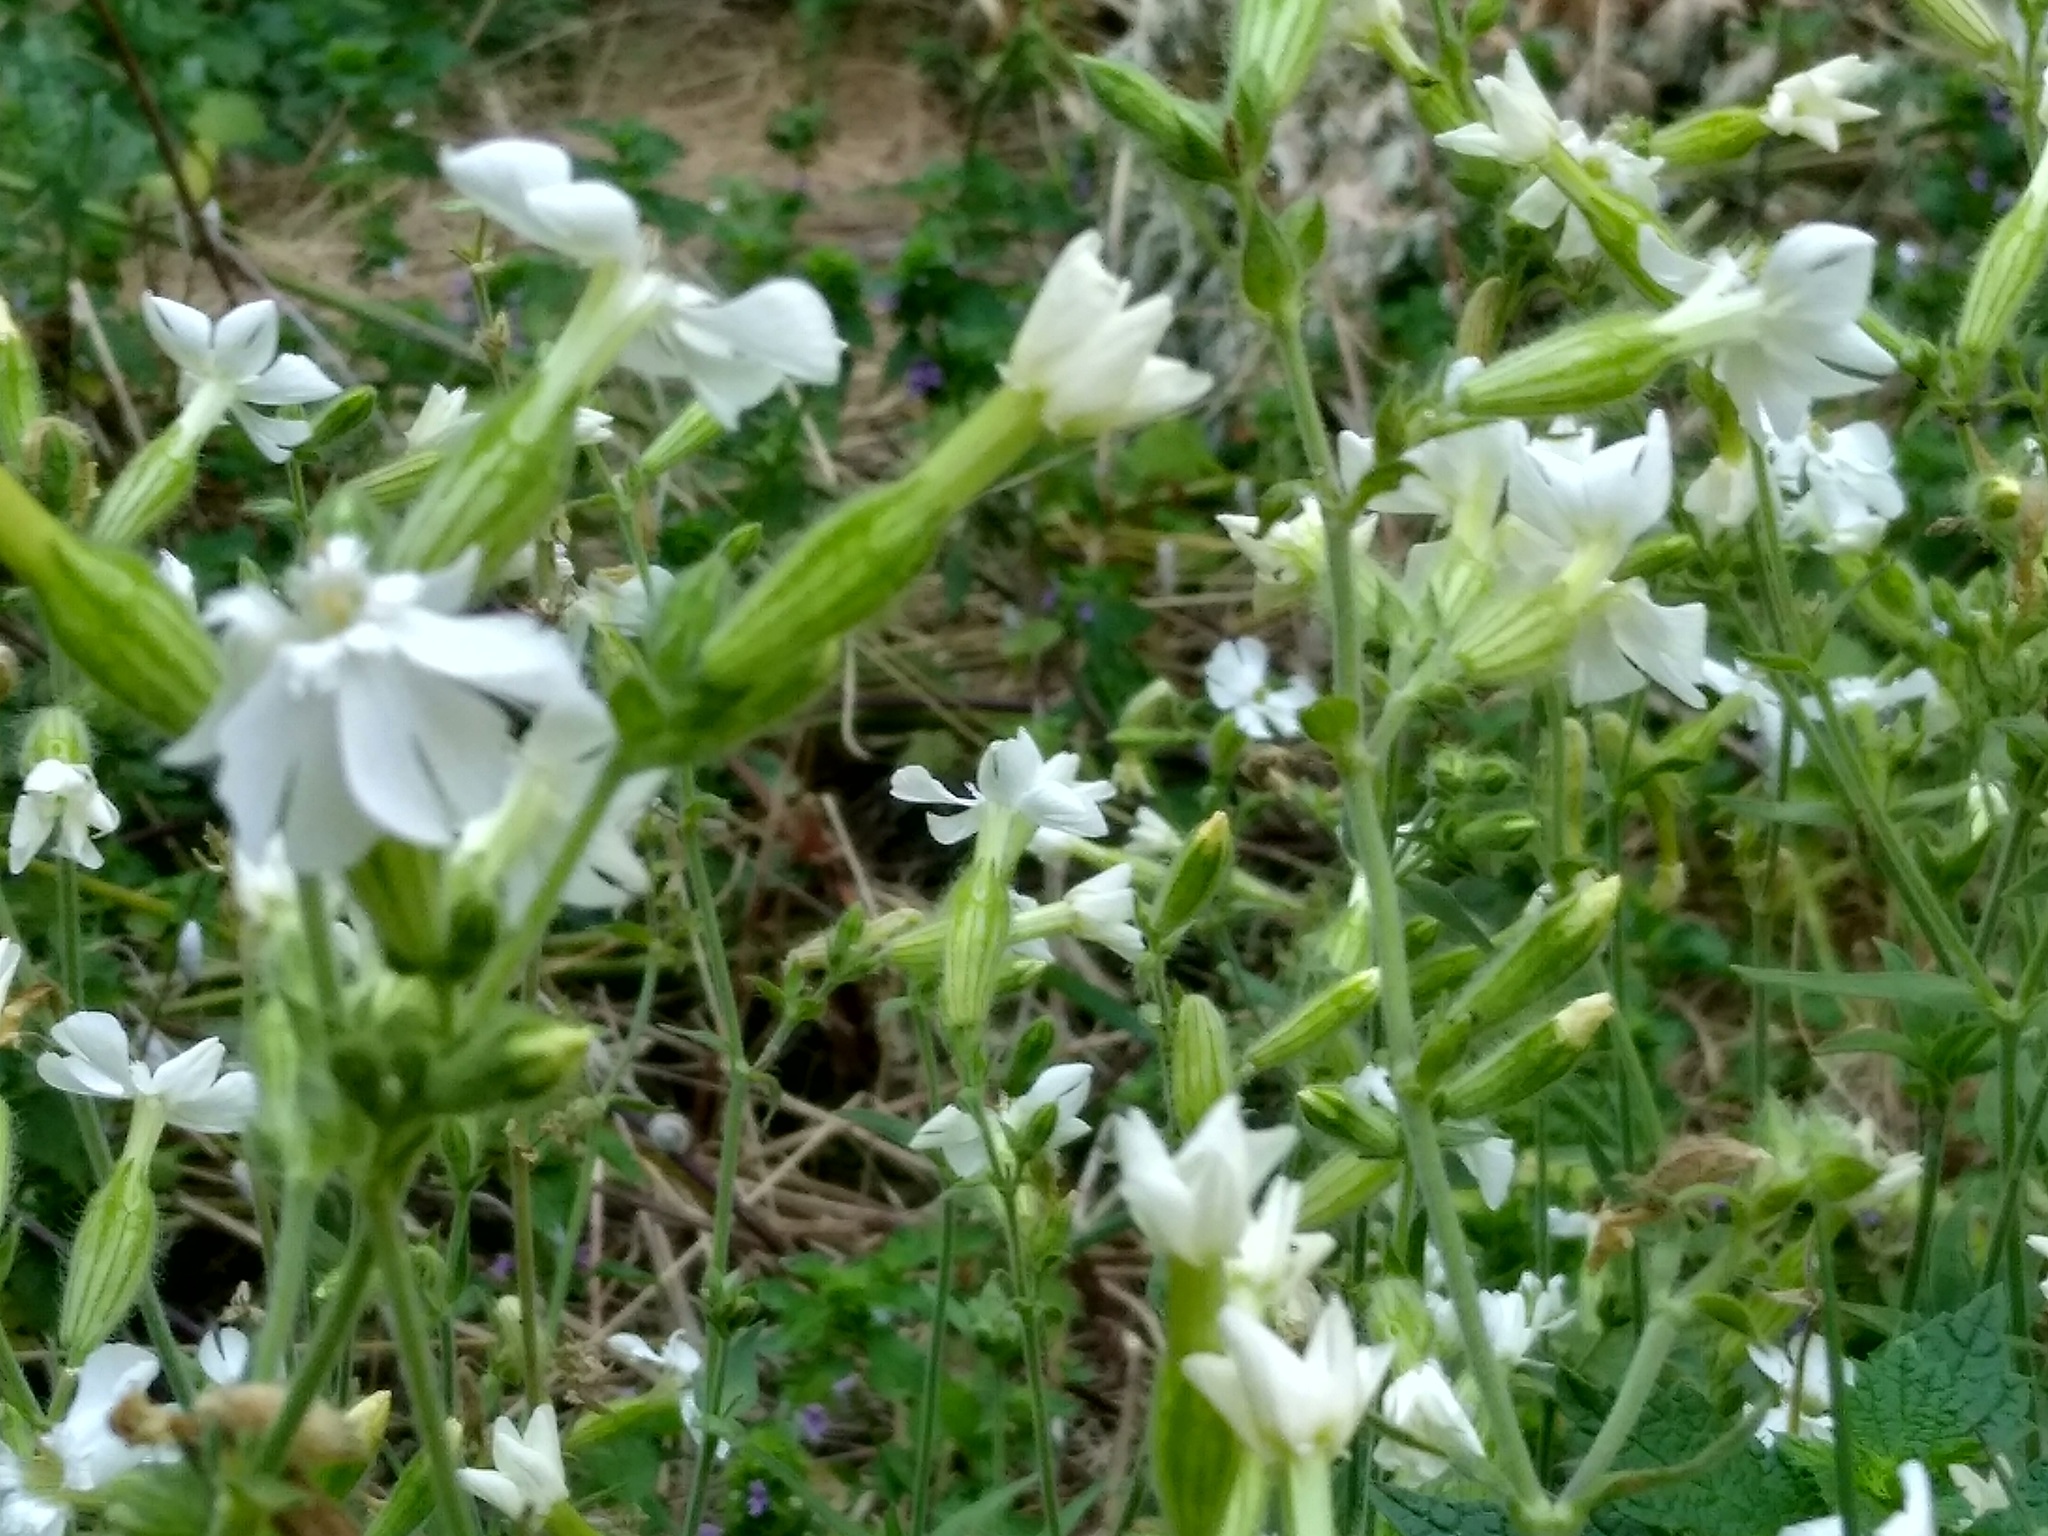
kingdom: Plantae
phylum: Tracheophyta
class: Magnoliopsida
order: Caryophyllales
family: Caryophyllaceae
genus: Silene
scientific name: Silene latifolia
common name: White campion
